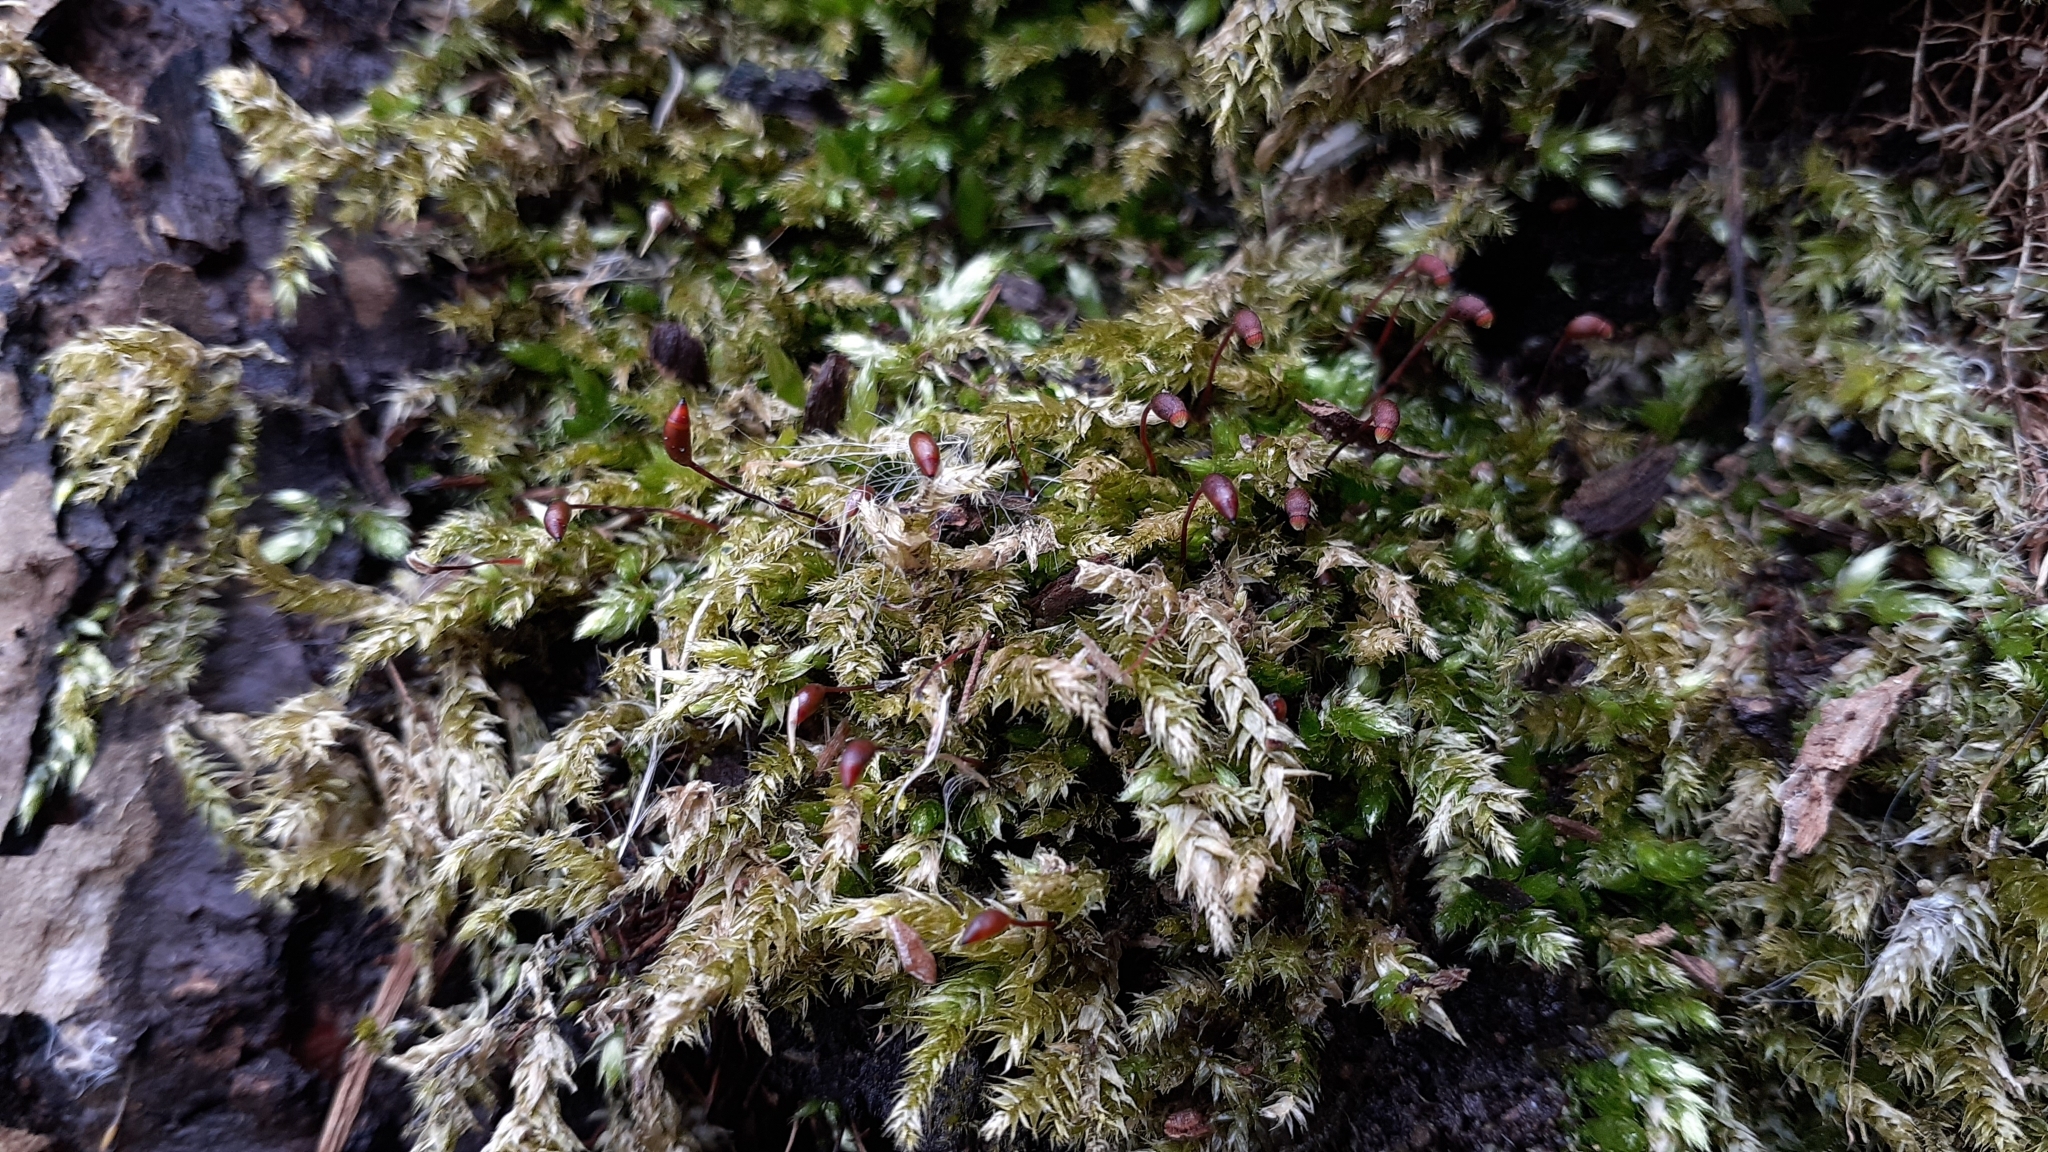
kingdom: Plantae
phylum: Bryophyta
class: Bryopsida
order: Hypnales
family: Brachytheciaceae
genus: Brachythecium
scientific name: Brachythecium rutabulum
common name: Rough-stalked feather-moss
